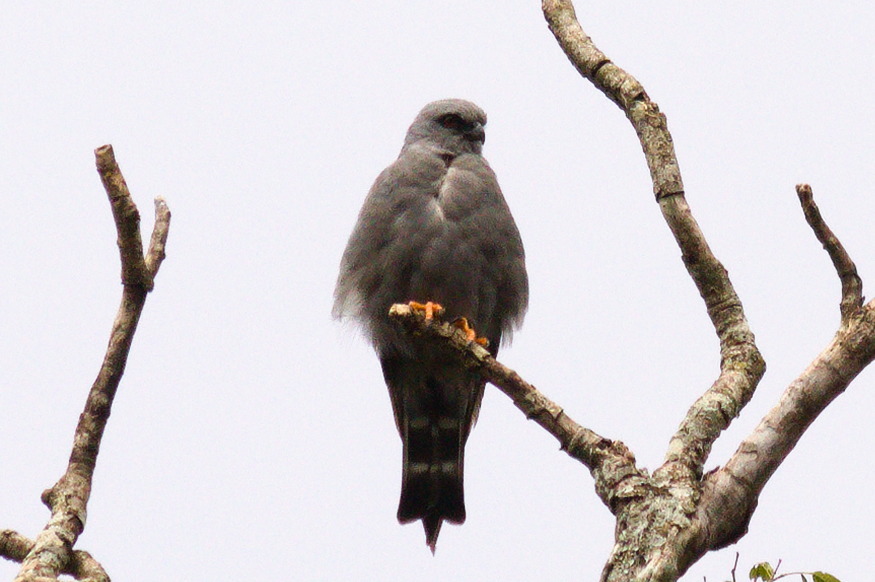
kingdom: Animalia
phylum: Chordata
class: Aves
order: Accipitriformes
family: Accipitridae
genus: Ictinia
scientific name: Ictinia plumbea
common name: Plumbeous kite
